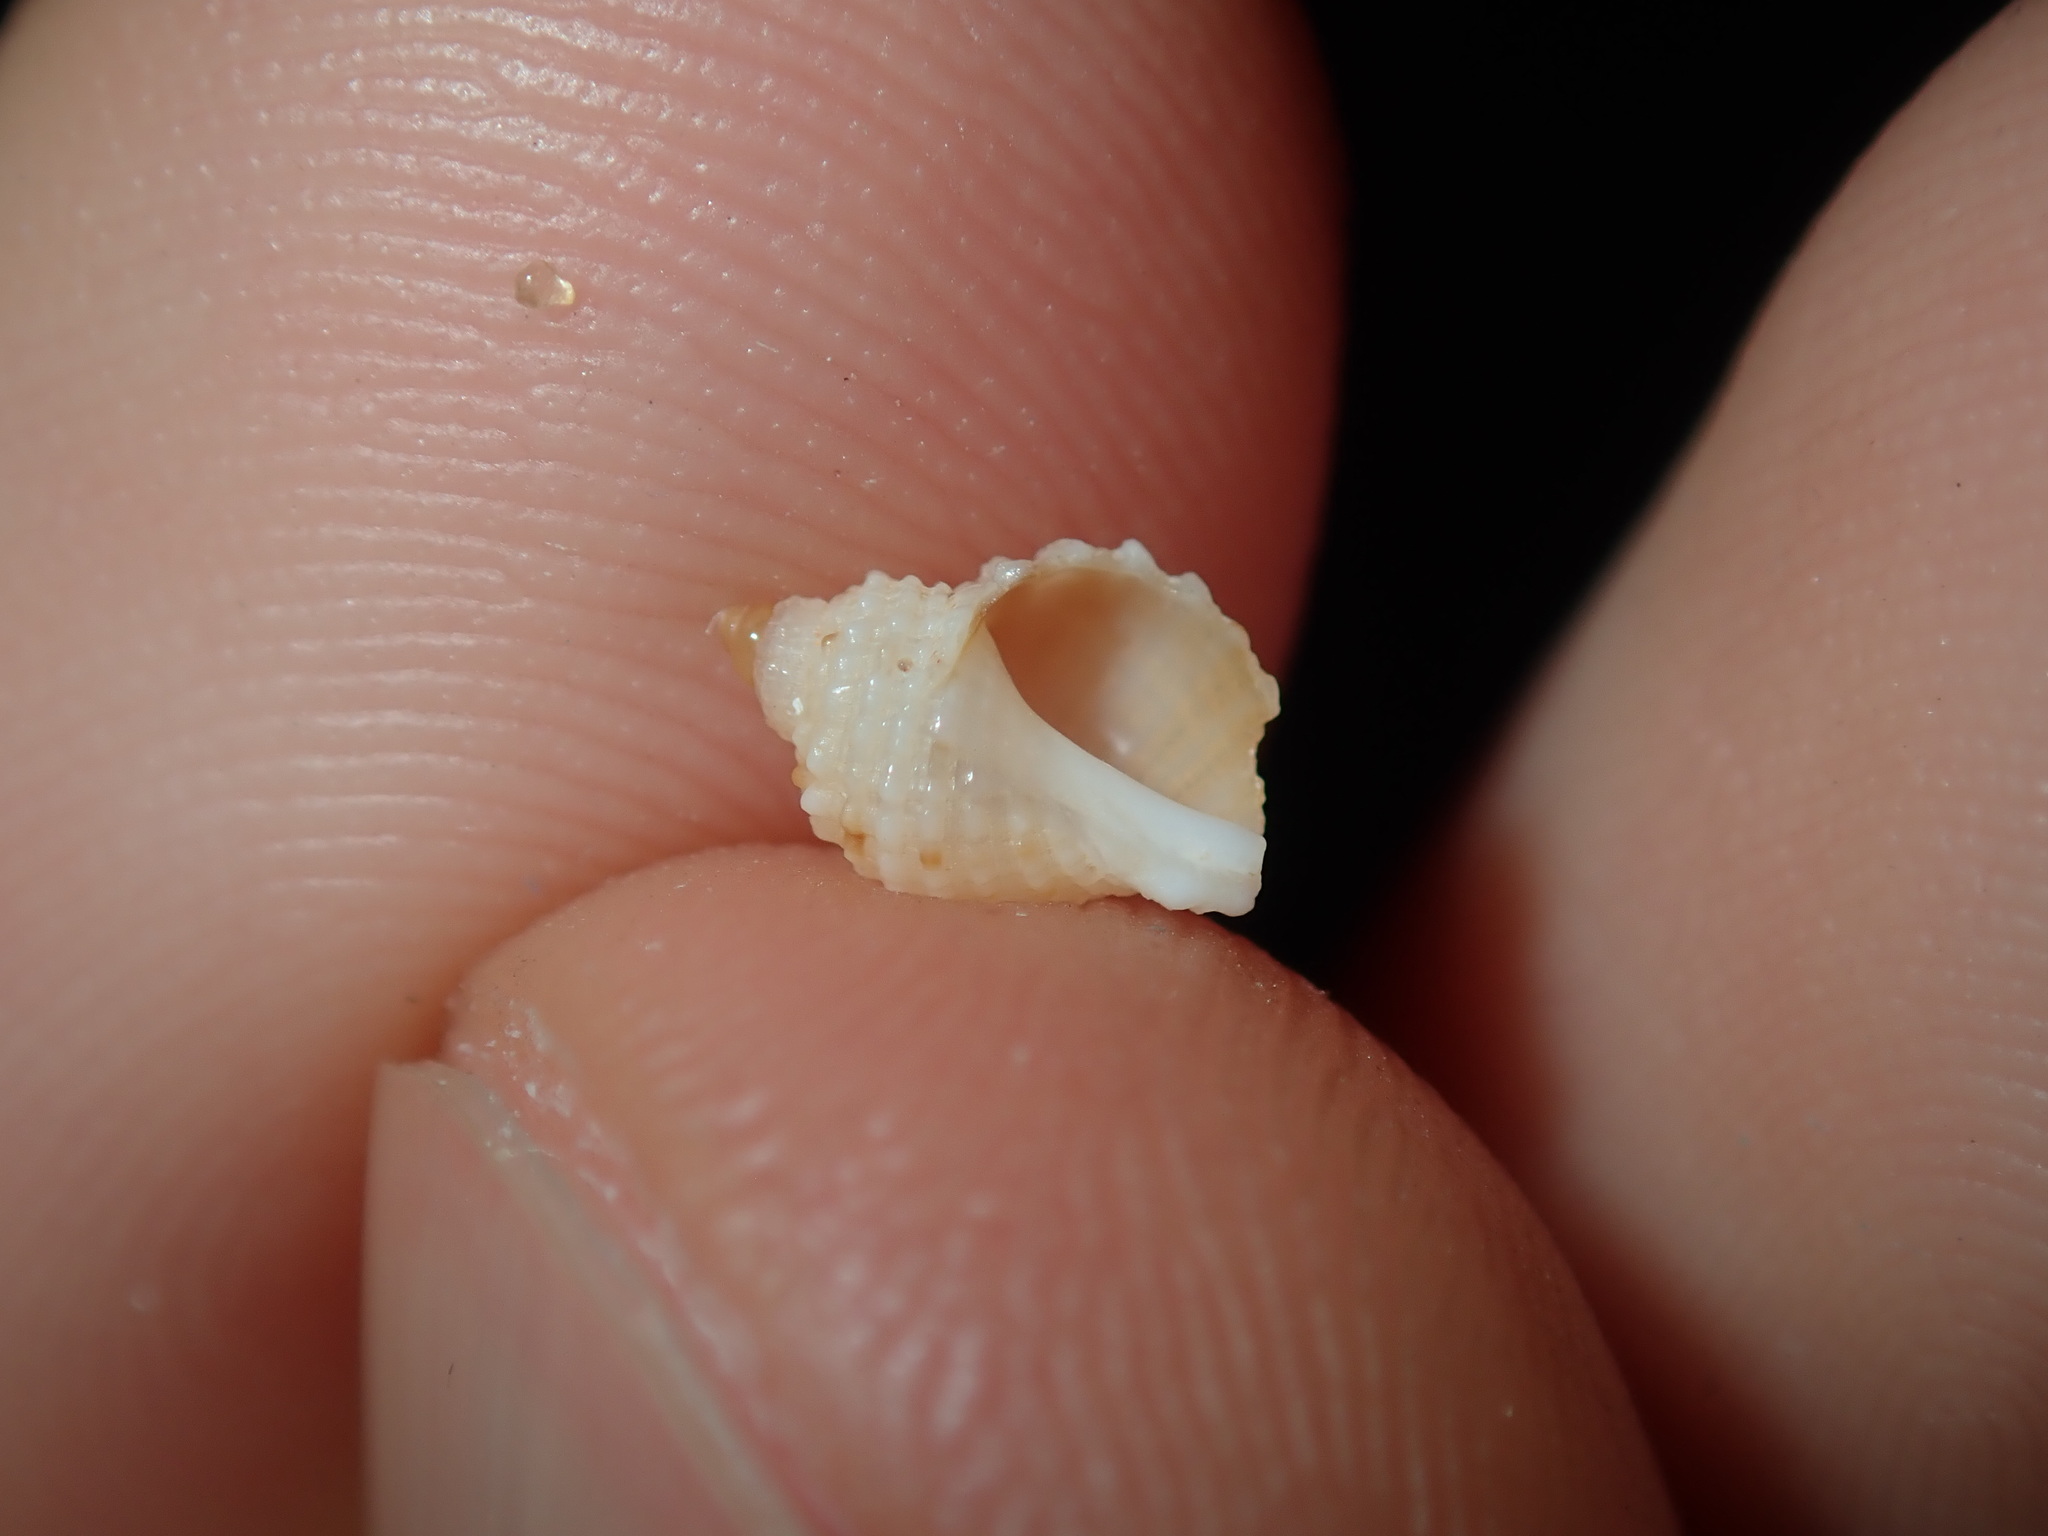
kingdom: Animalia
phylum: Mollusca
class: Gastropoda
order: Neogastropoda
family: Muricidae
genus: Dicathais
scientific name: Dicathais orbita
